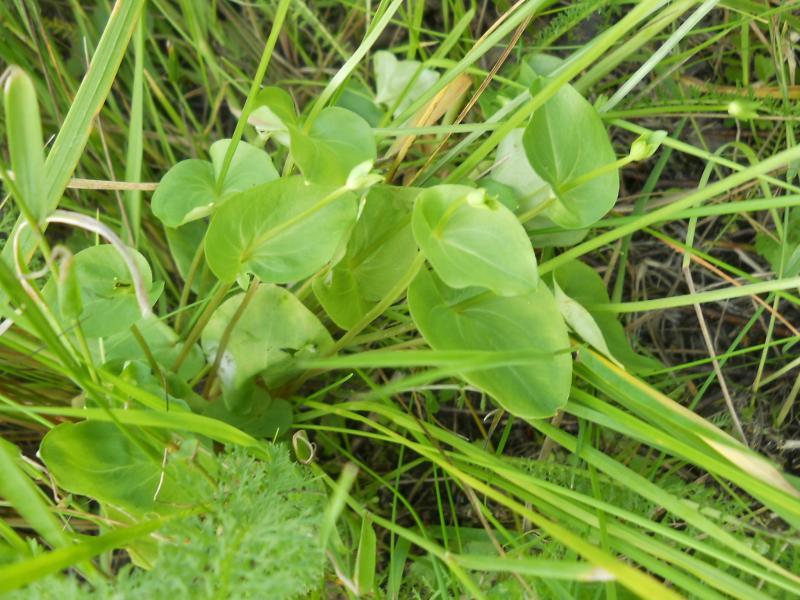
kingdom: Plantae
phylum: Tracheophyta
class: Magnoliopsida
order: Celastrales
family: Parnassiaceae
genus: Parnassia
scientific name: Parnassia palustris
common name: Grass-of-parnassus
